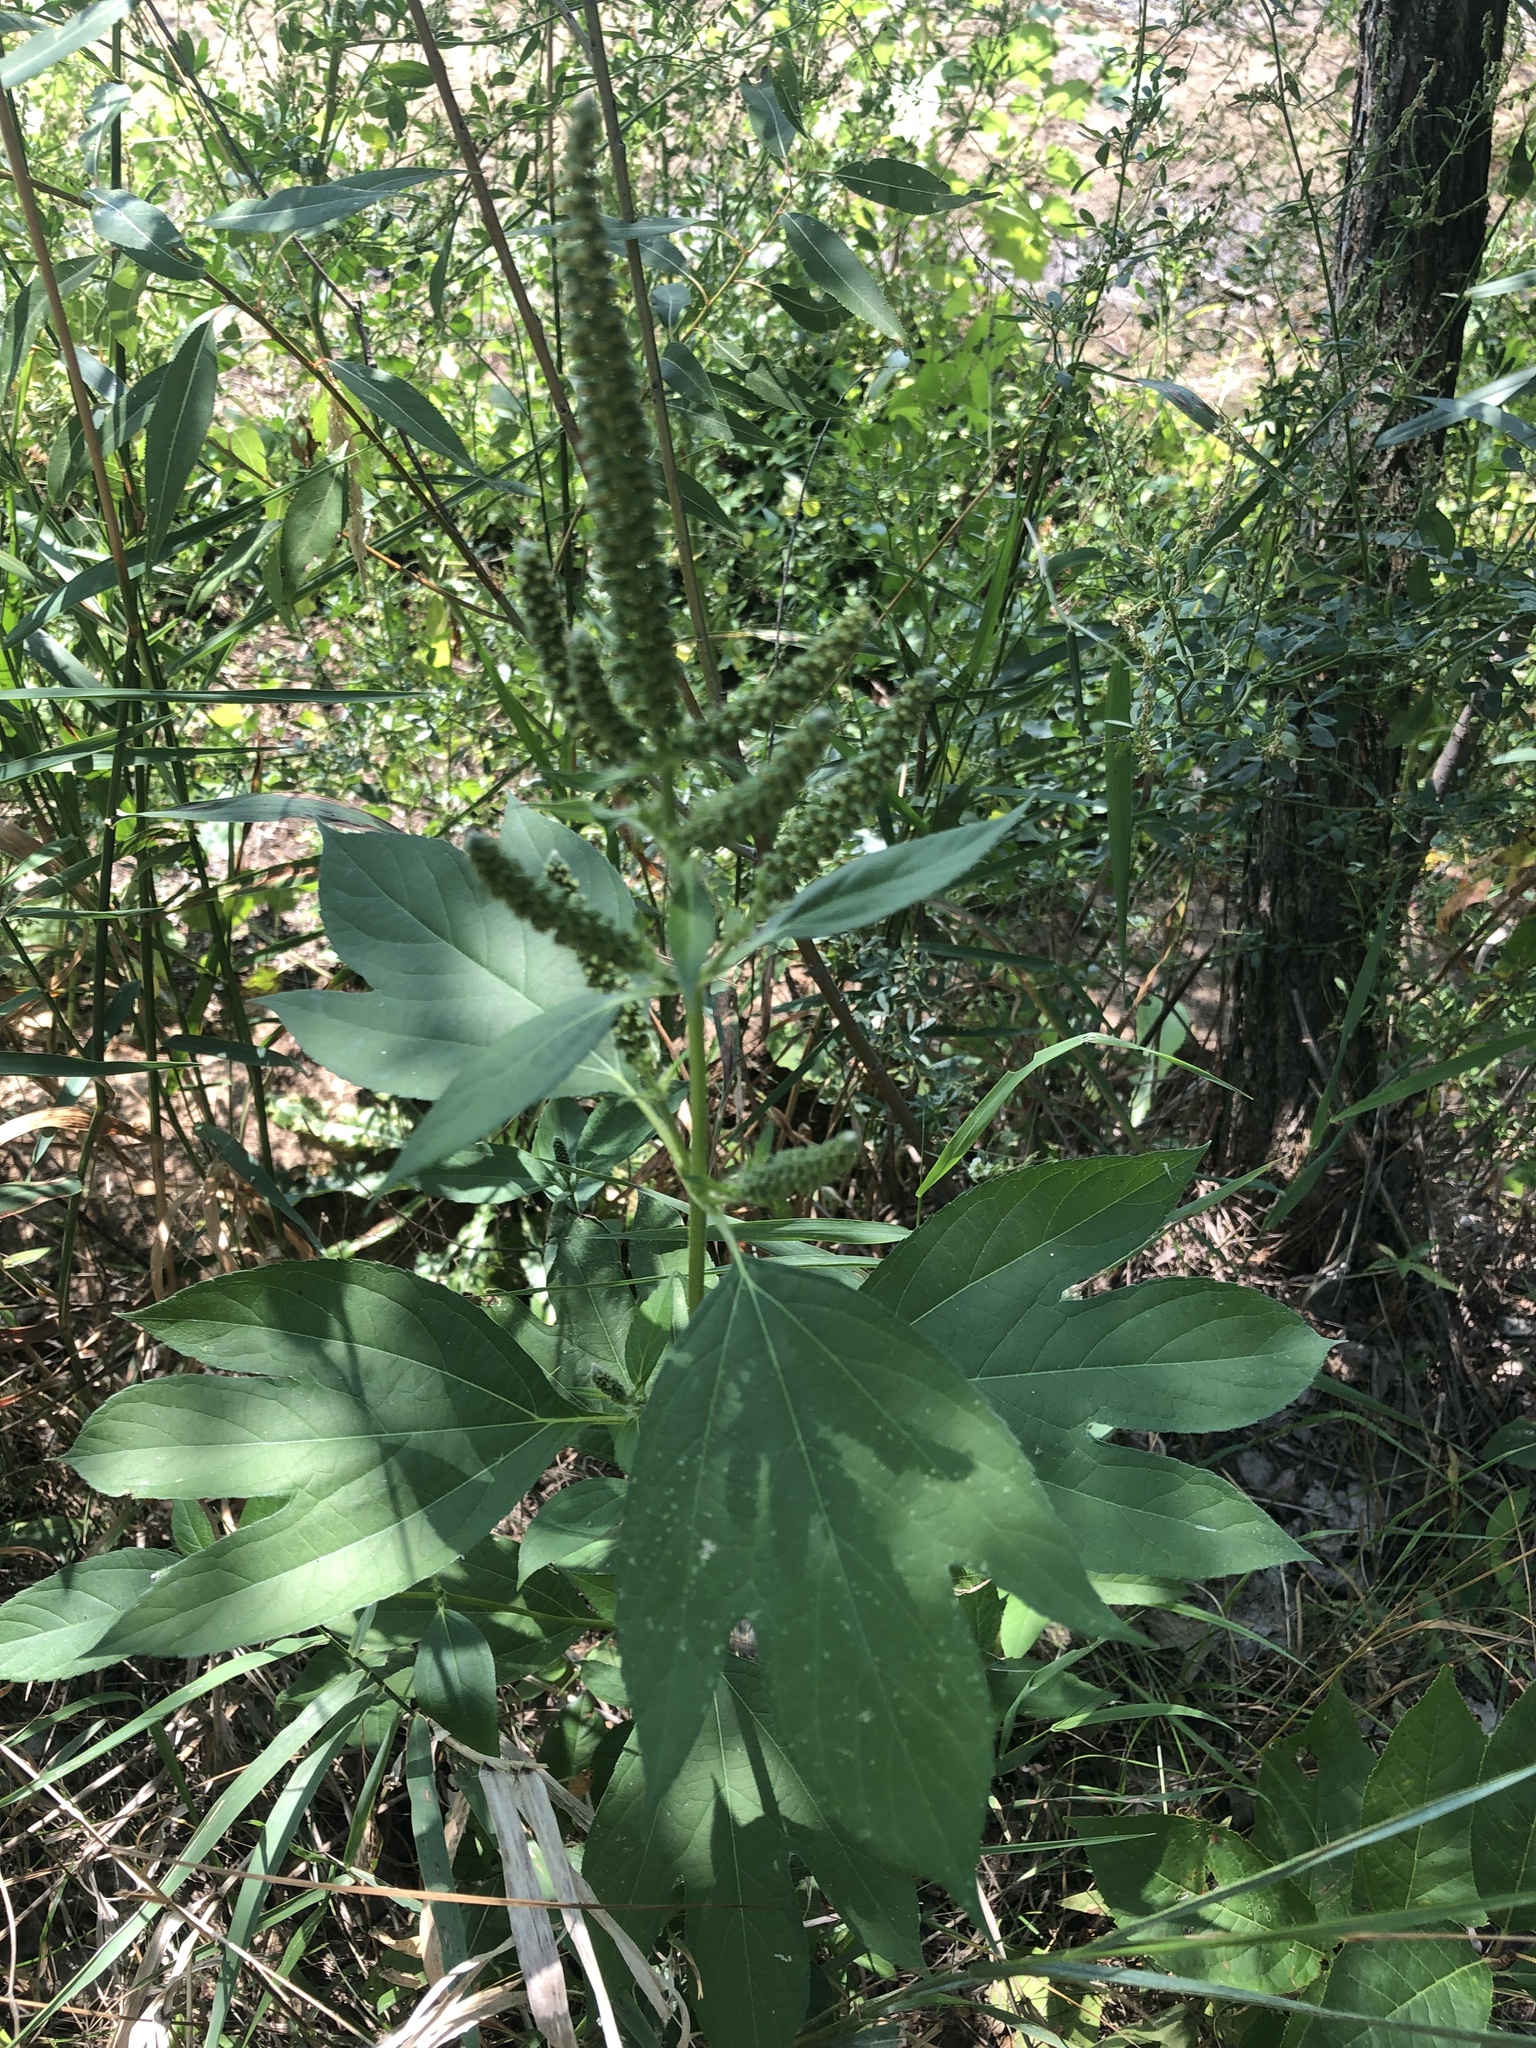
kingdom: Plantae
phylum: Tracheophyta
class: Magnoliopsida
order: Asterales
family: Asteraceae
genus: Ambrosia
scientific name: Ambrosia trifida
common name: Giant ragweed
